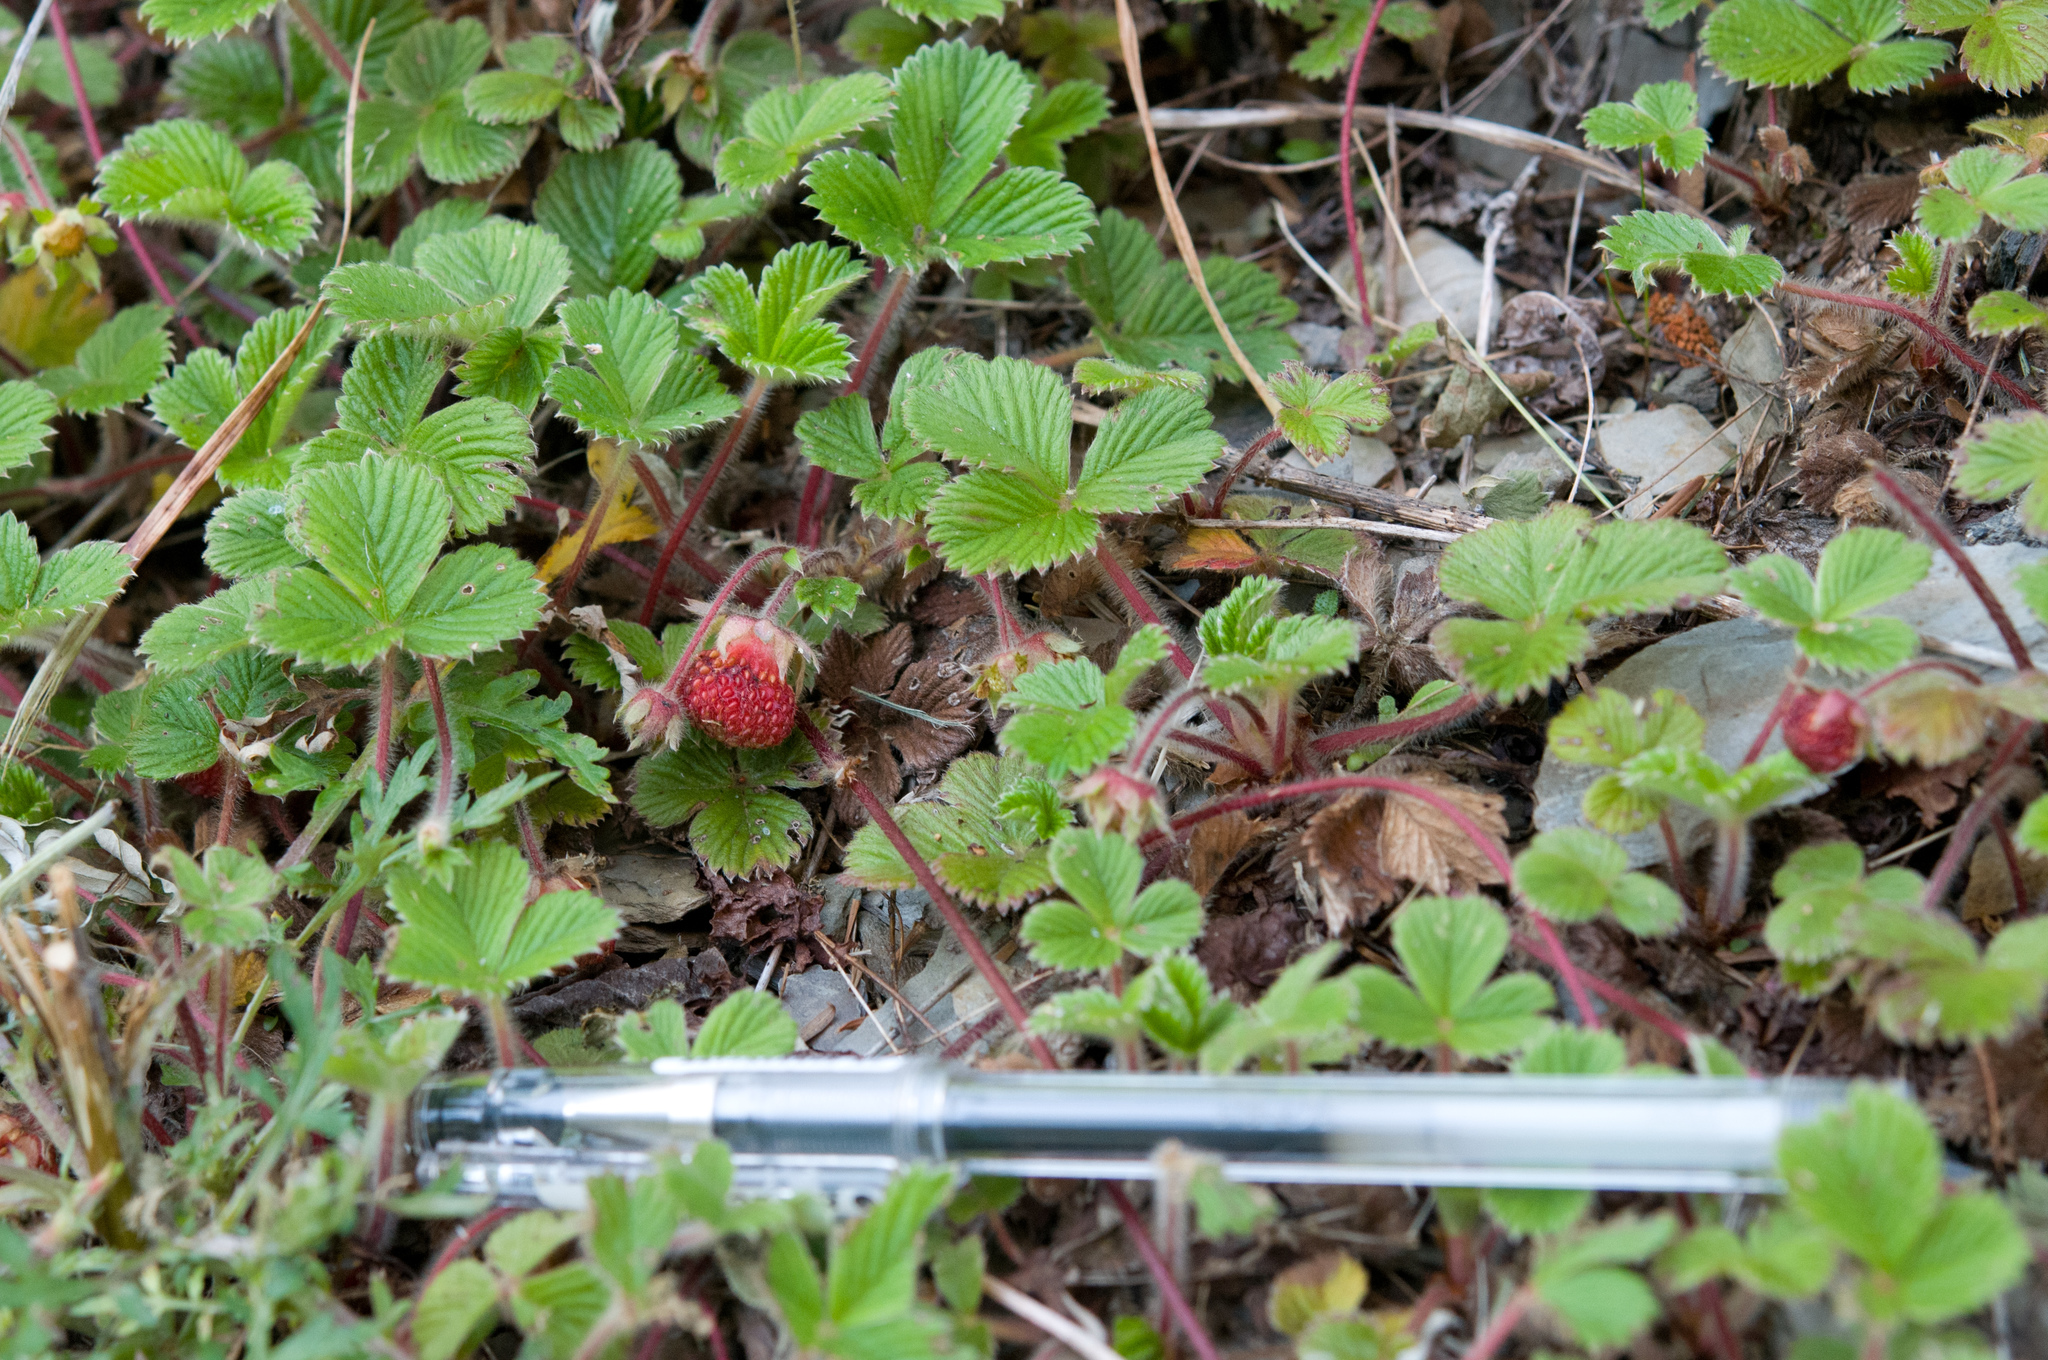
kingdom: Plantae
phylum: Tracheophyta
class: Magnoliopsida
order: Rosales
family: Rosaceae
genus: Fragaria
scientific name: Fragaria nilgerrensis
